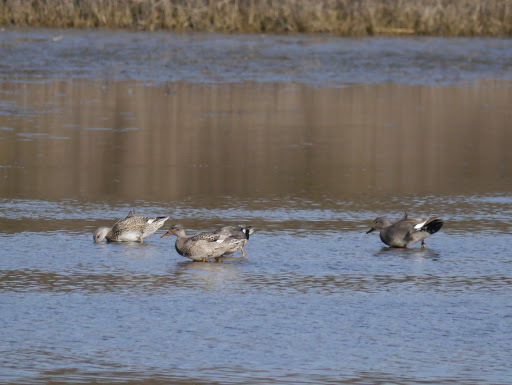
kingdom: Animalia
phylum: Chordata
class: Aves
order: Anseriformes
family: Anatidae
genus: Mareca
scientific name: Mareca strepera
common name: Gadwall
